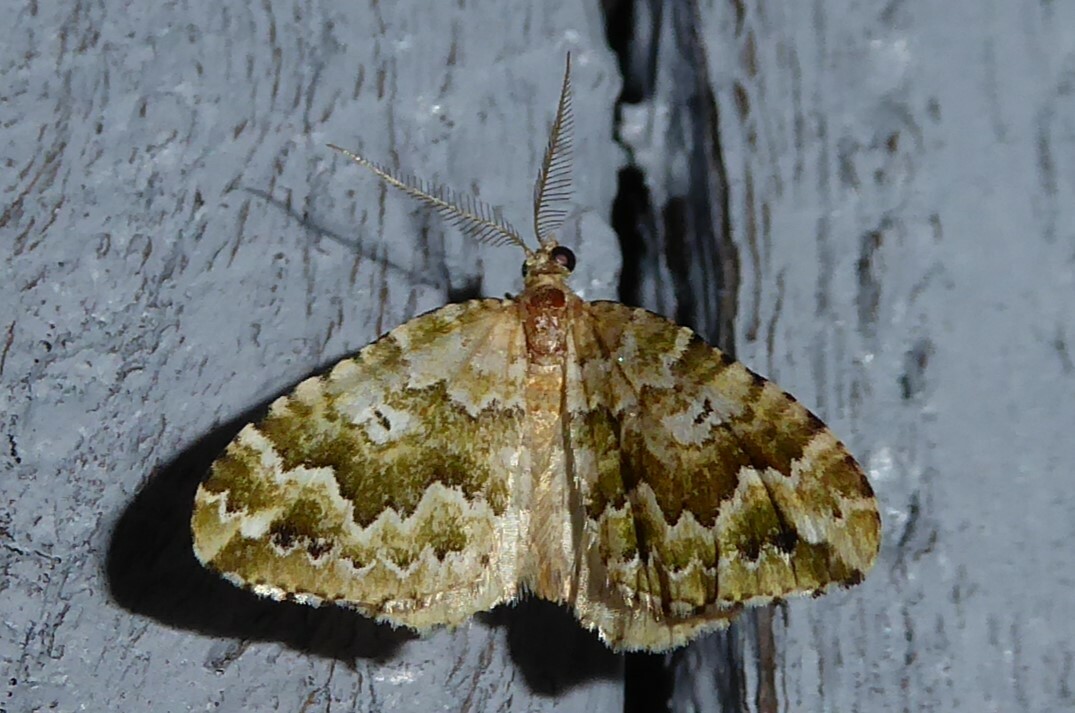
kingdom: Animalia
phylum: Arthropoda
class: Insecta
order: Lepidoptera
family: Geometridae
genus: Asaphodes
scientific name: Asaphodes beata
